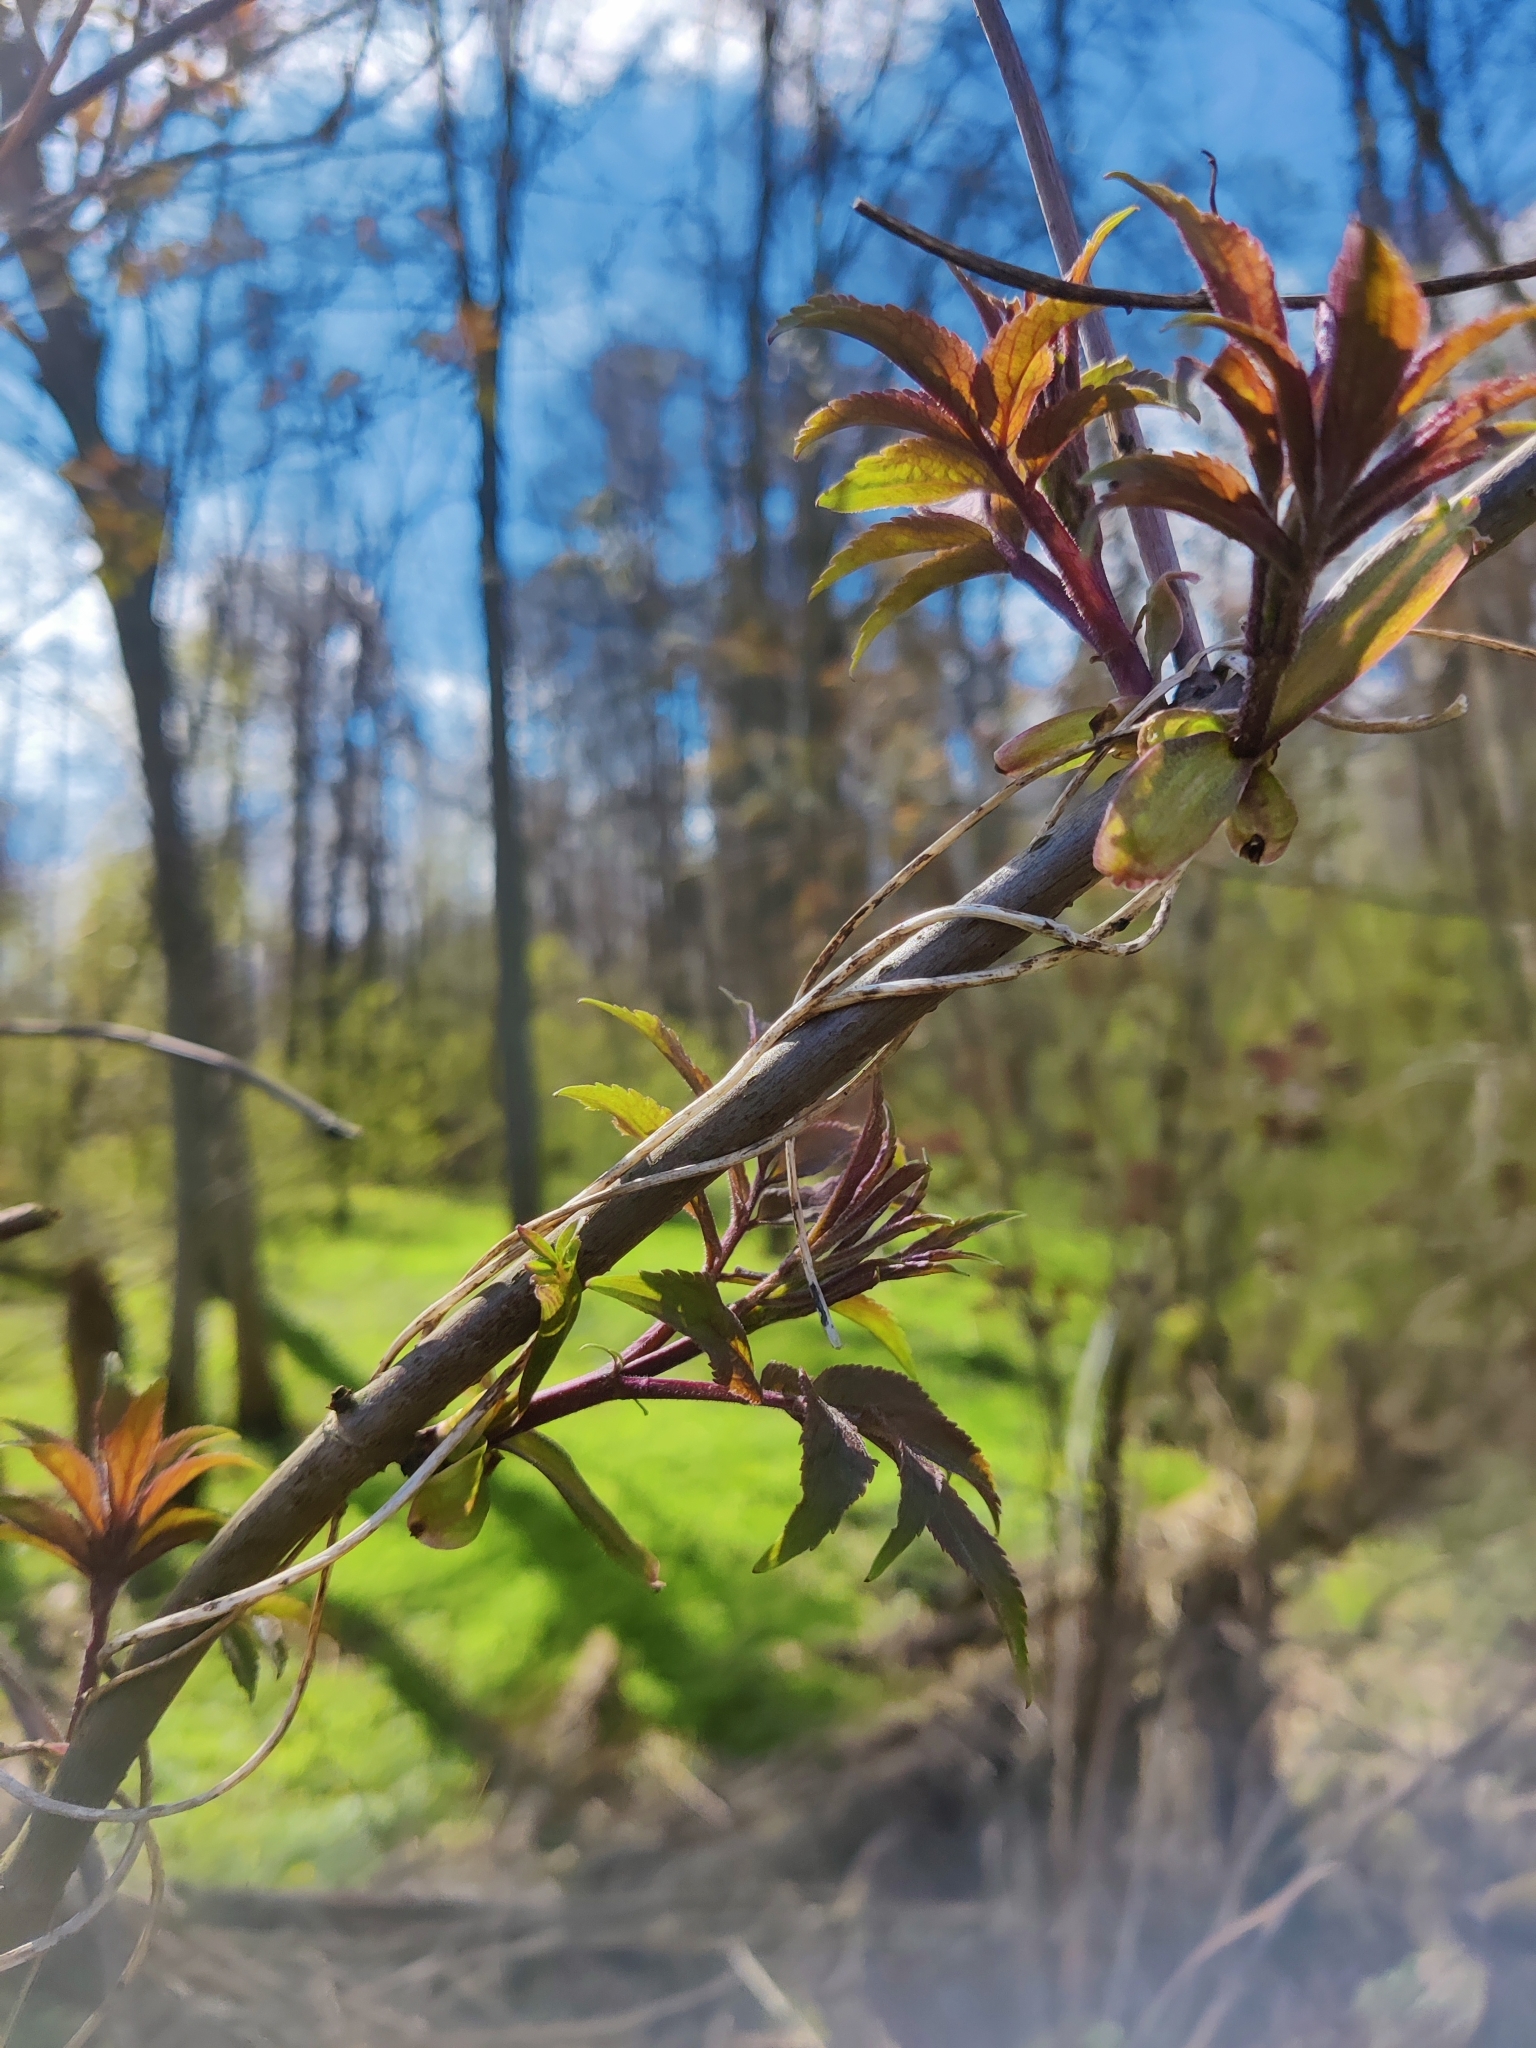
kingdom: Plantae
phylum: Tracheophyta
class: Magnoliopsida
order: Dipsacales
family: Viburnaceae
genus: Sambucus
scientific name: Sambucus racemosa
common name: Red-berried elder
